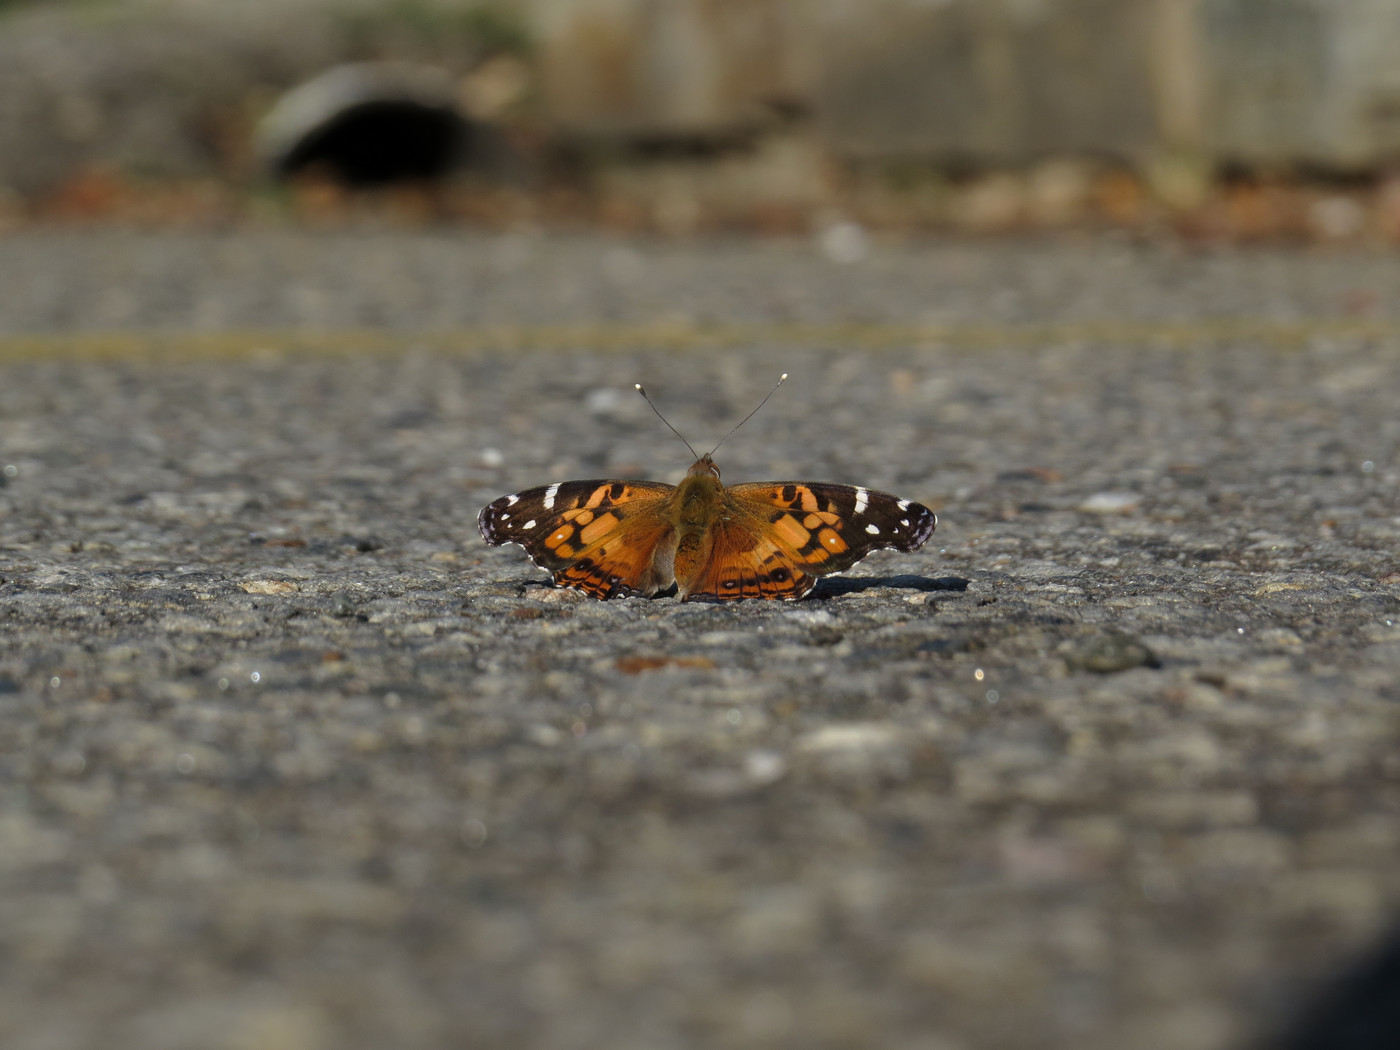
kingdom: Animalia
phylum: Arthropoda
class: Insecta
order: Lepidoptera
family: Nymphalidae
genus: Vanessa
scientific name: Vanessa virginiensis
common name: American lady
